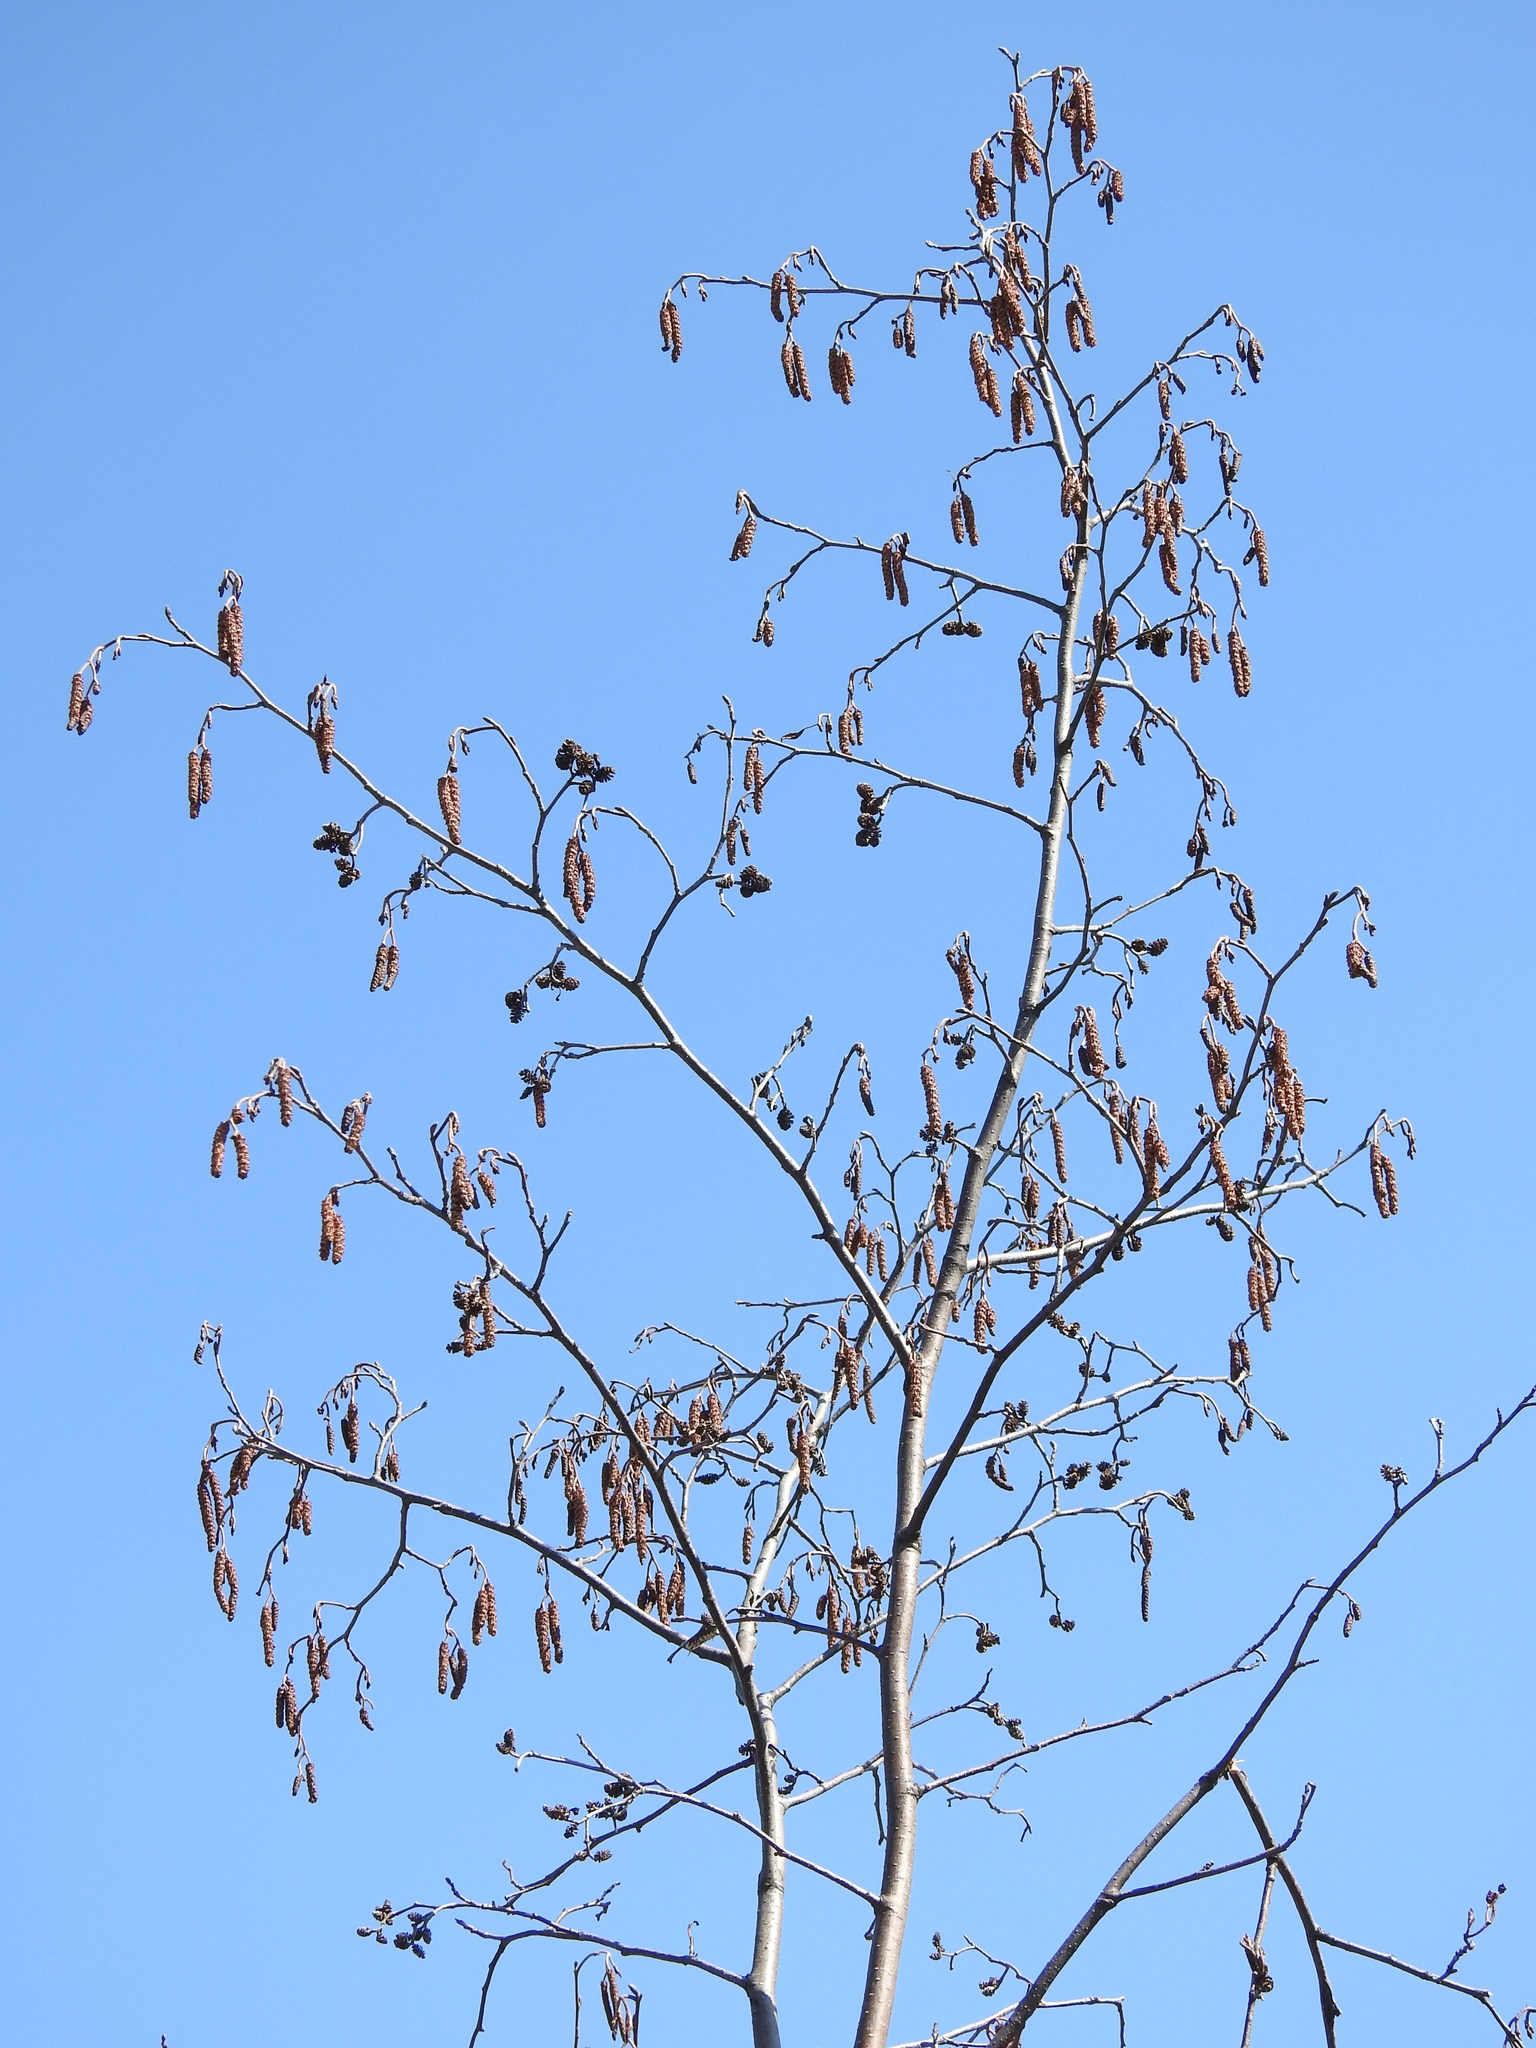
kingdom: Plantae
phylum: Tracheophyta
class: Magnoliopsida
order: Fagales
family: Betulaceae
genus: Alnus
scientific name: Alnus incana
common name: Grey alder
